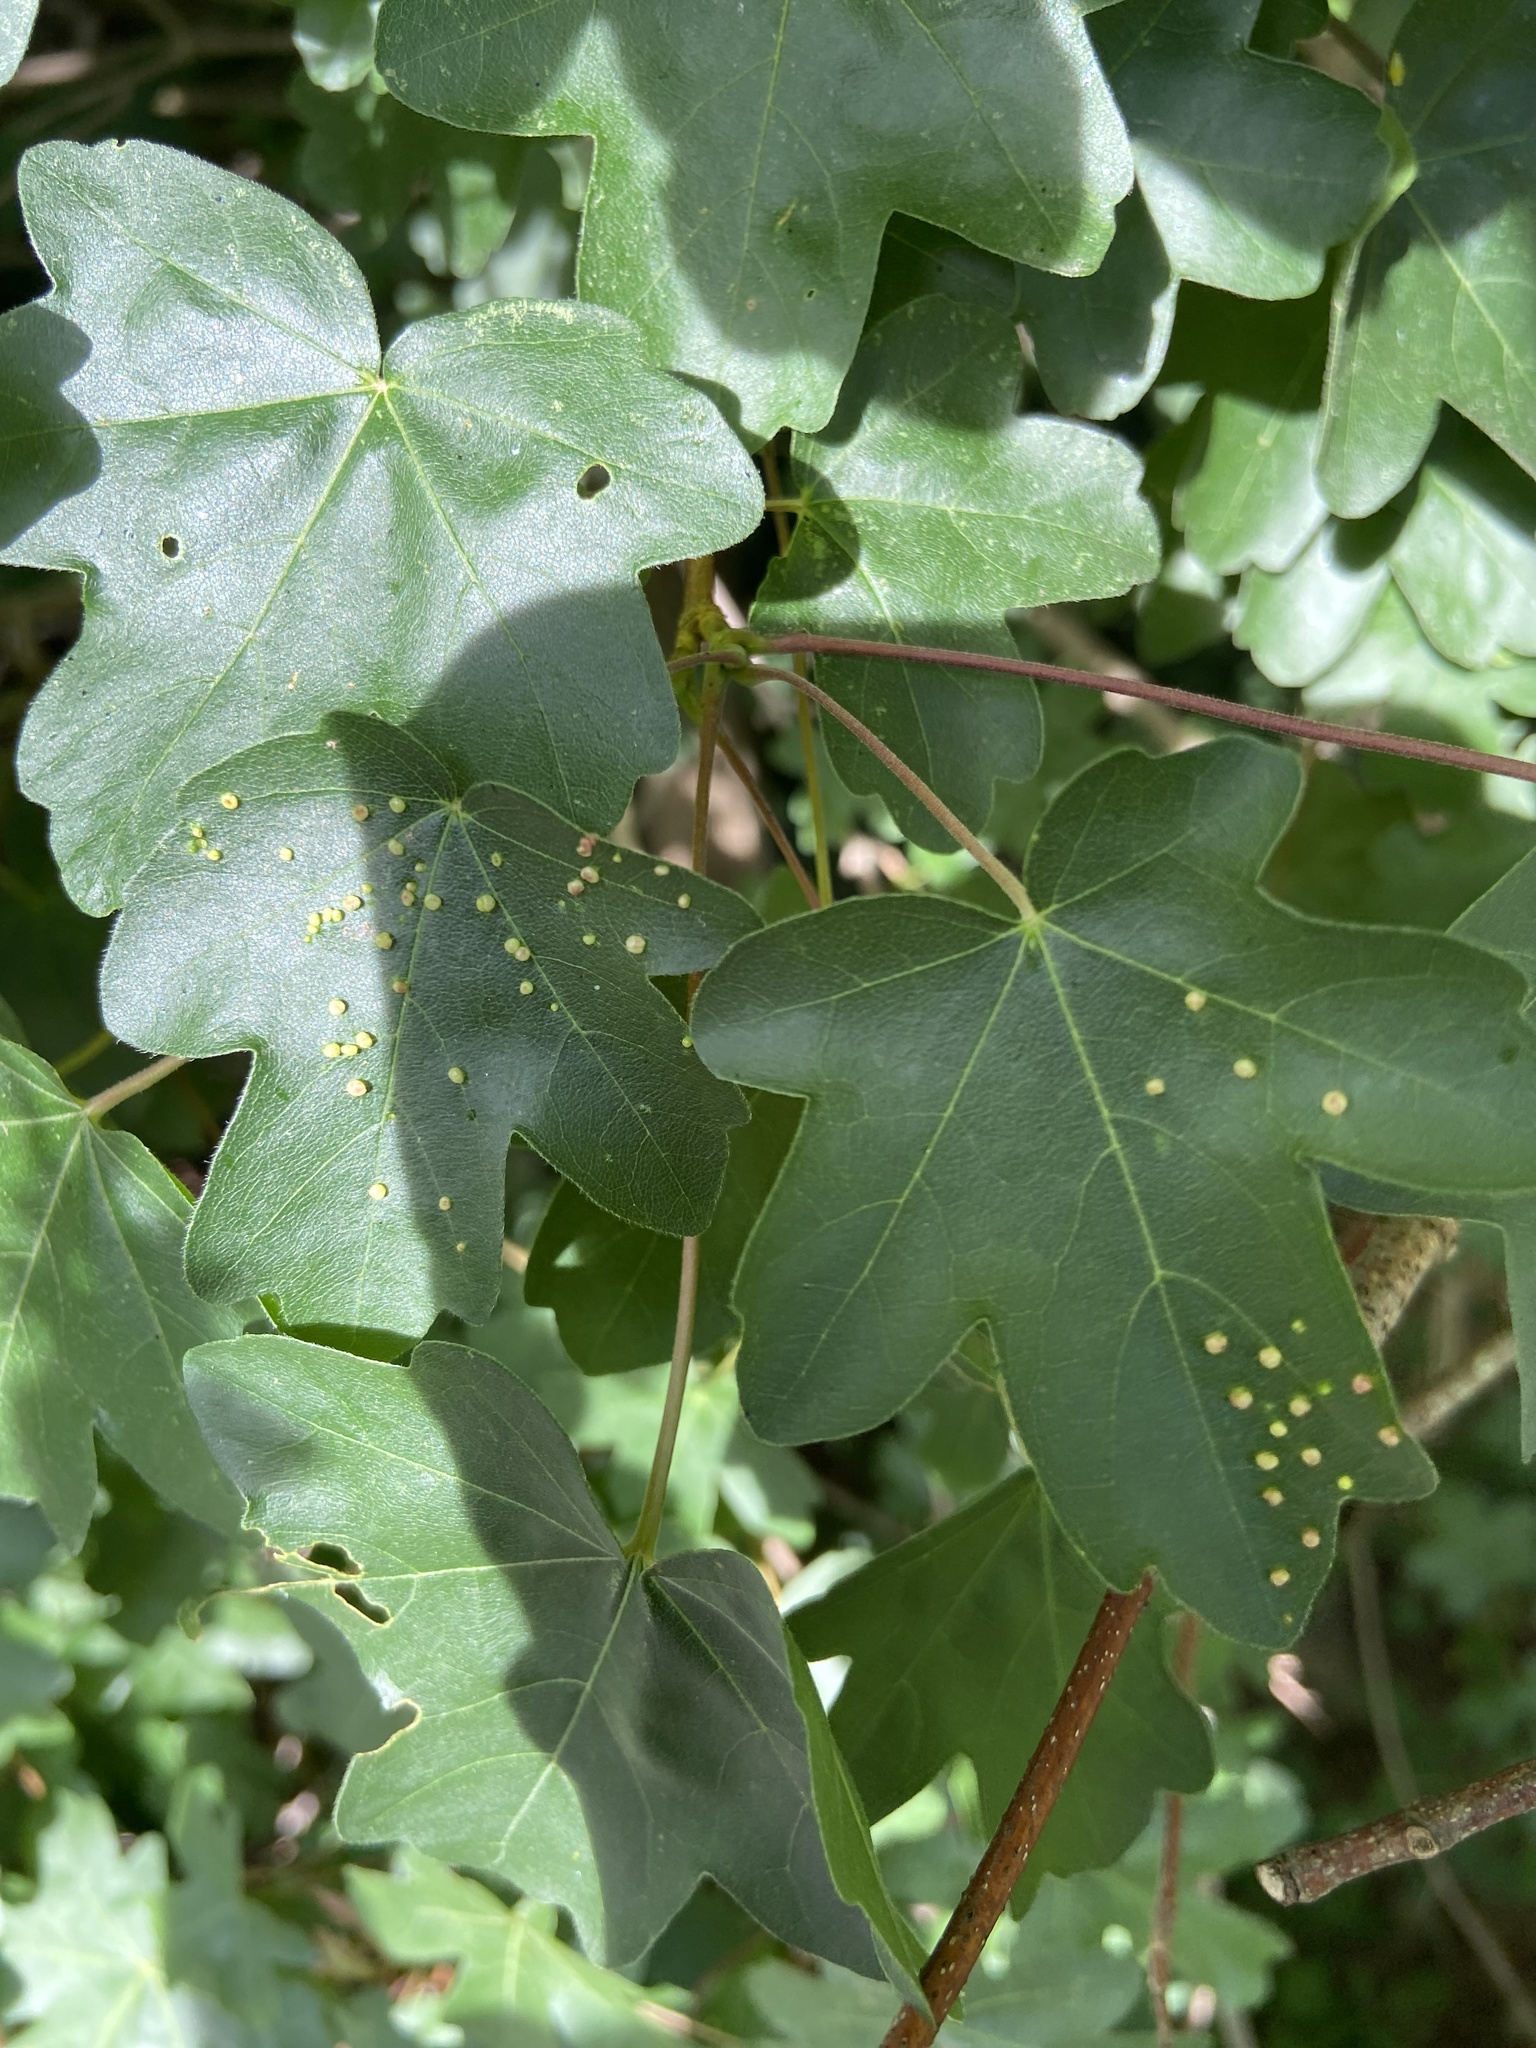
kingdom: Animalia
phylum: Arthropoda
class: Arachnida
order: Trombidiformes
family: Eriophyidae
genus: Aceria
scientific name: Aceria myriadeum
